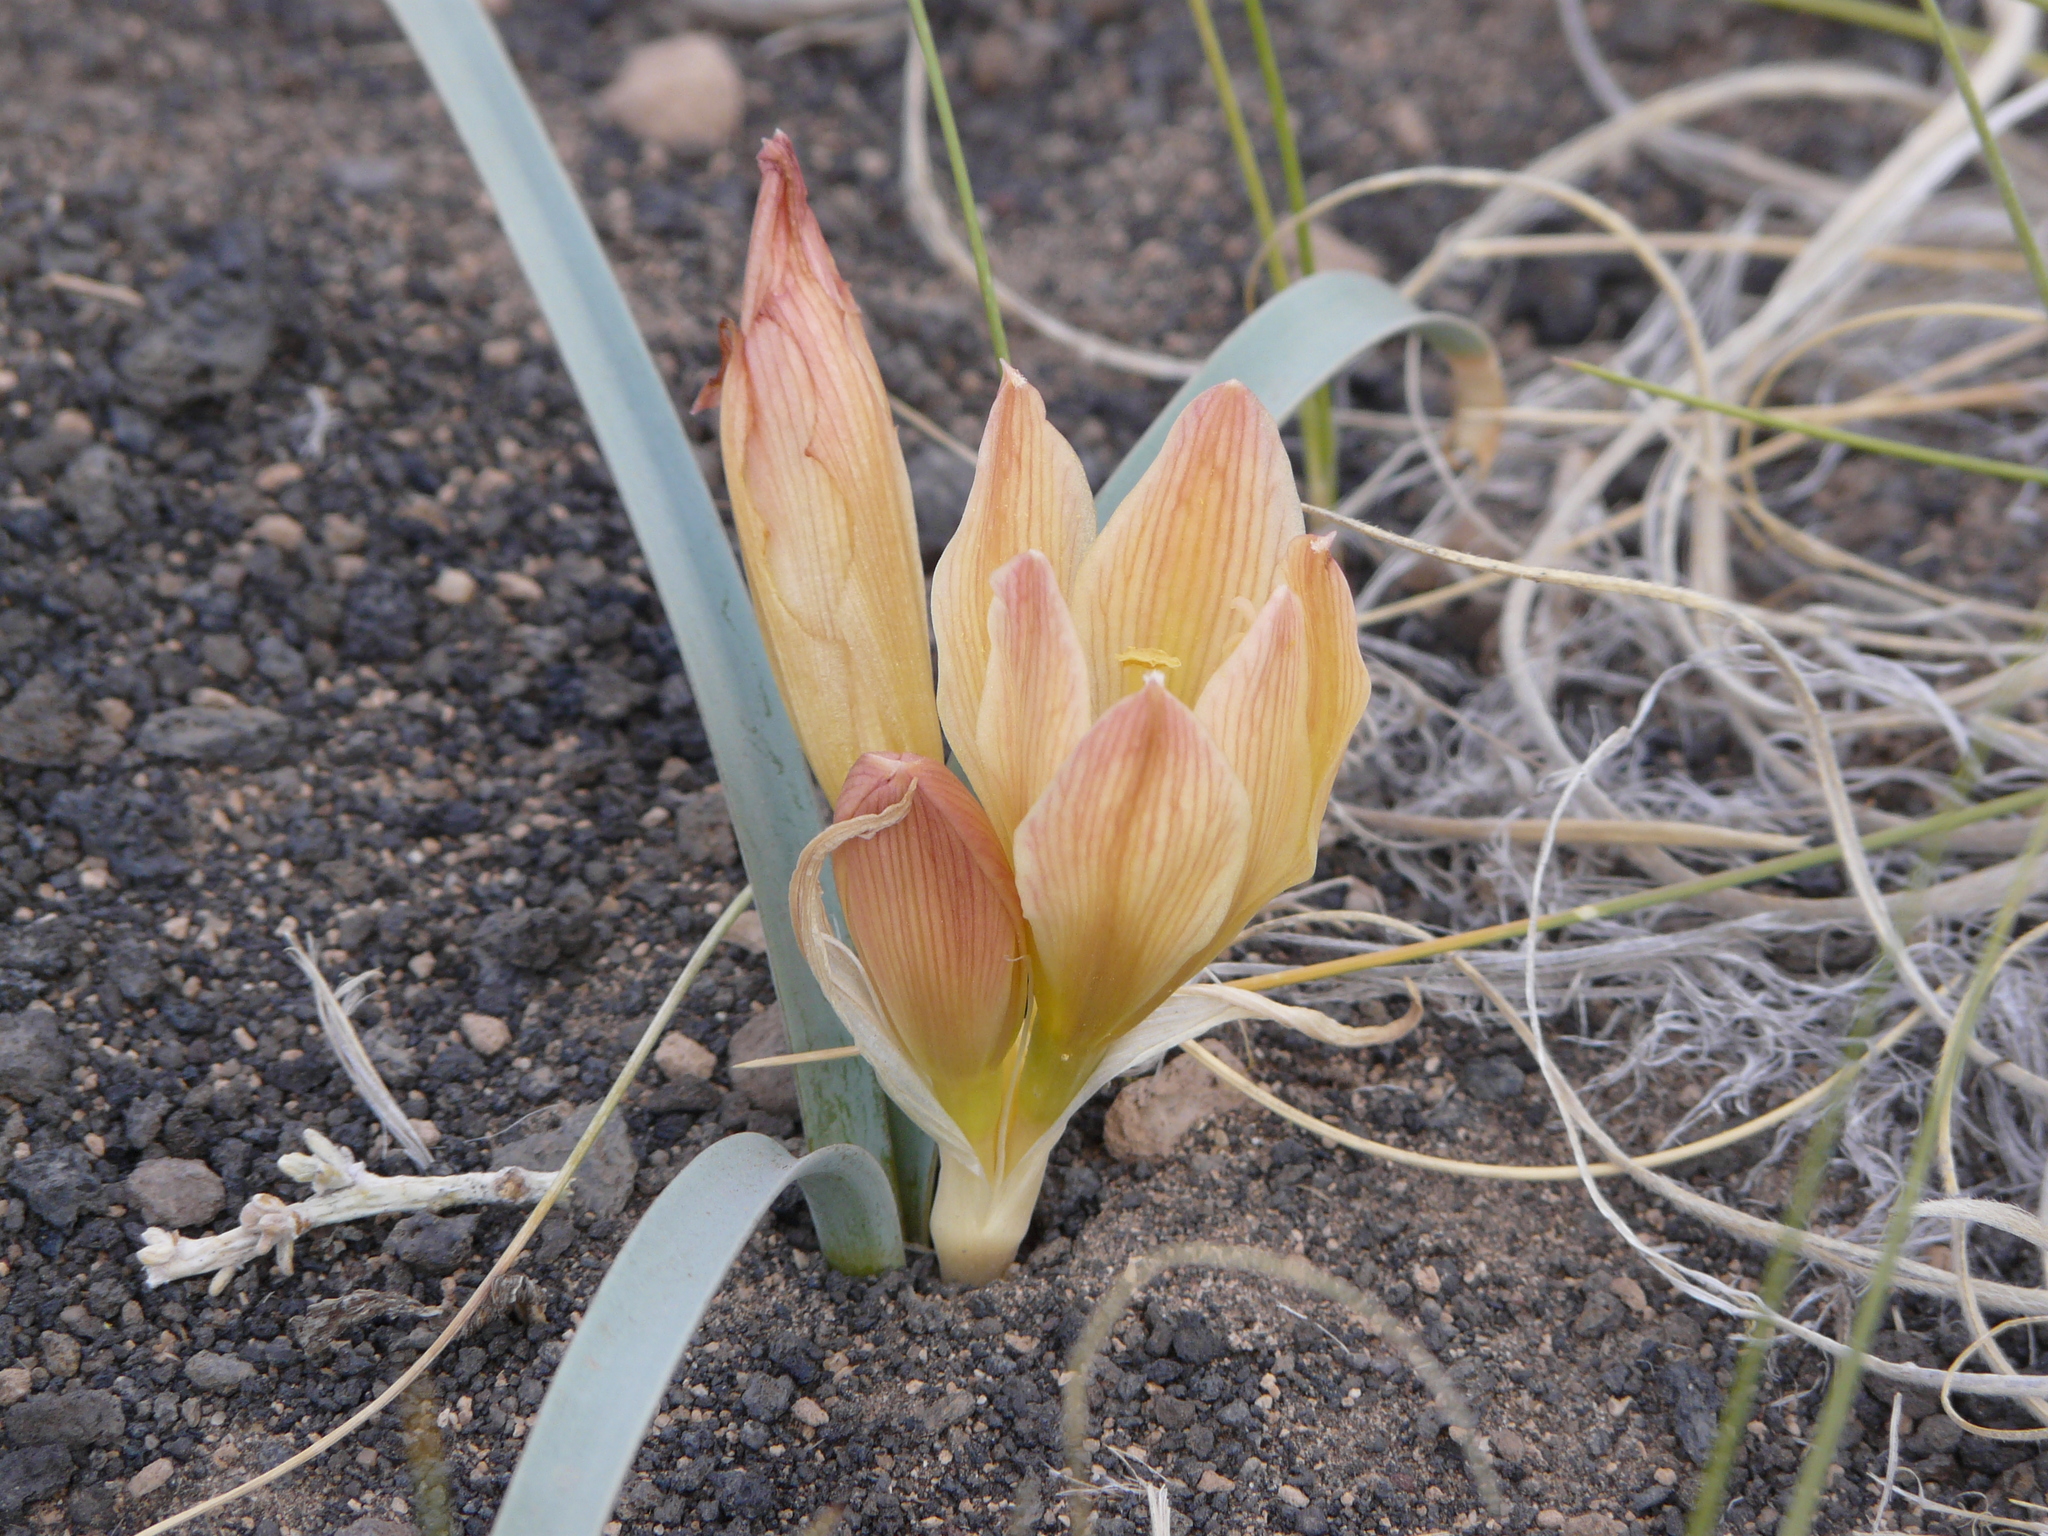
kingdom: Plantae
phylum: Tracheophyta
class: Liliopsida
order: Asparagales
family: Amaryllidaceae
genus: Zephyranthes
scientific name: Zephyranthes gilliesiana
